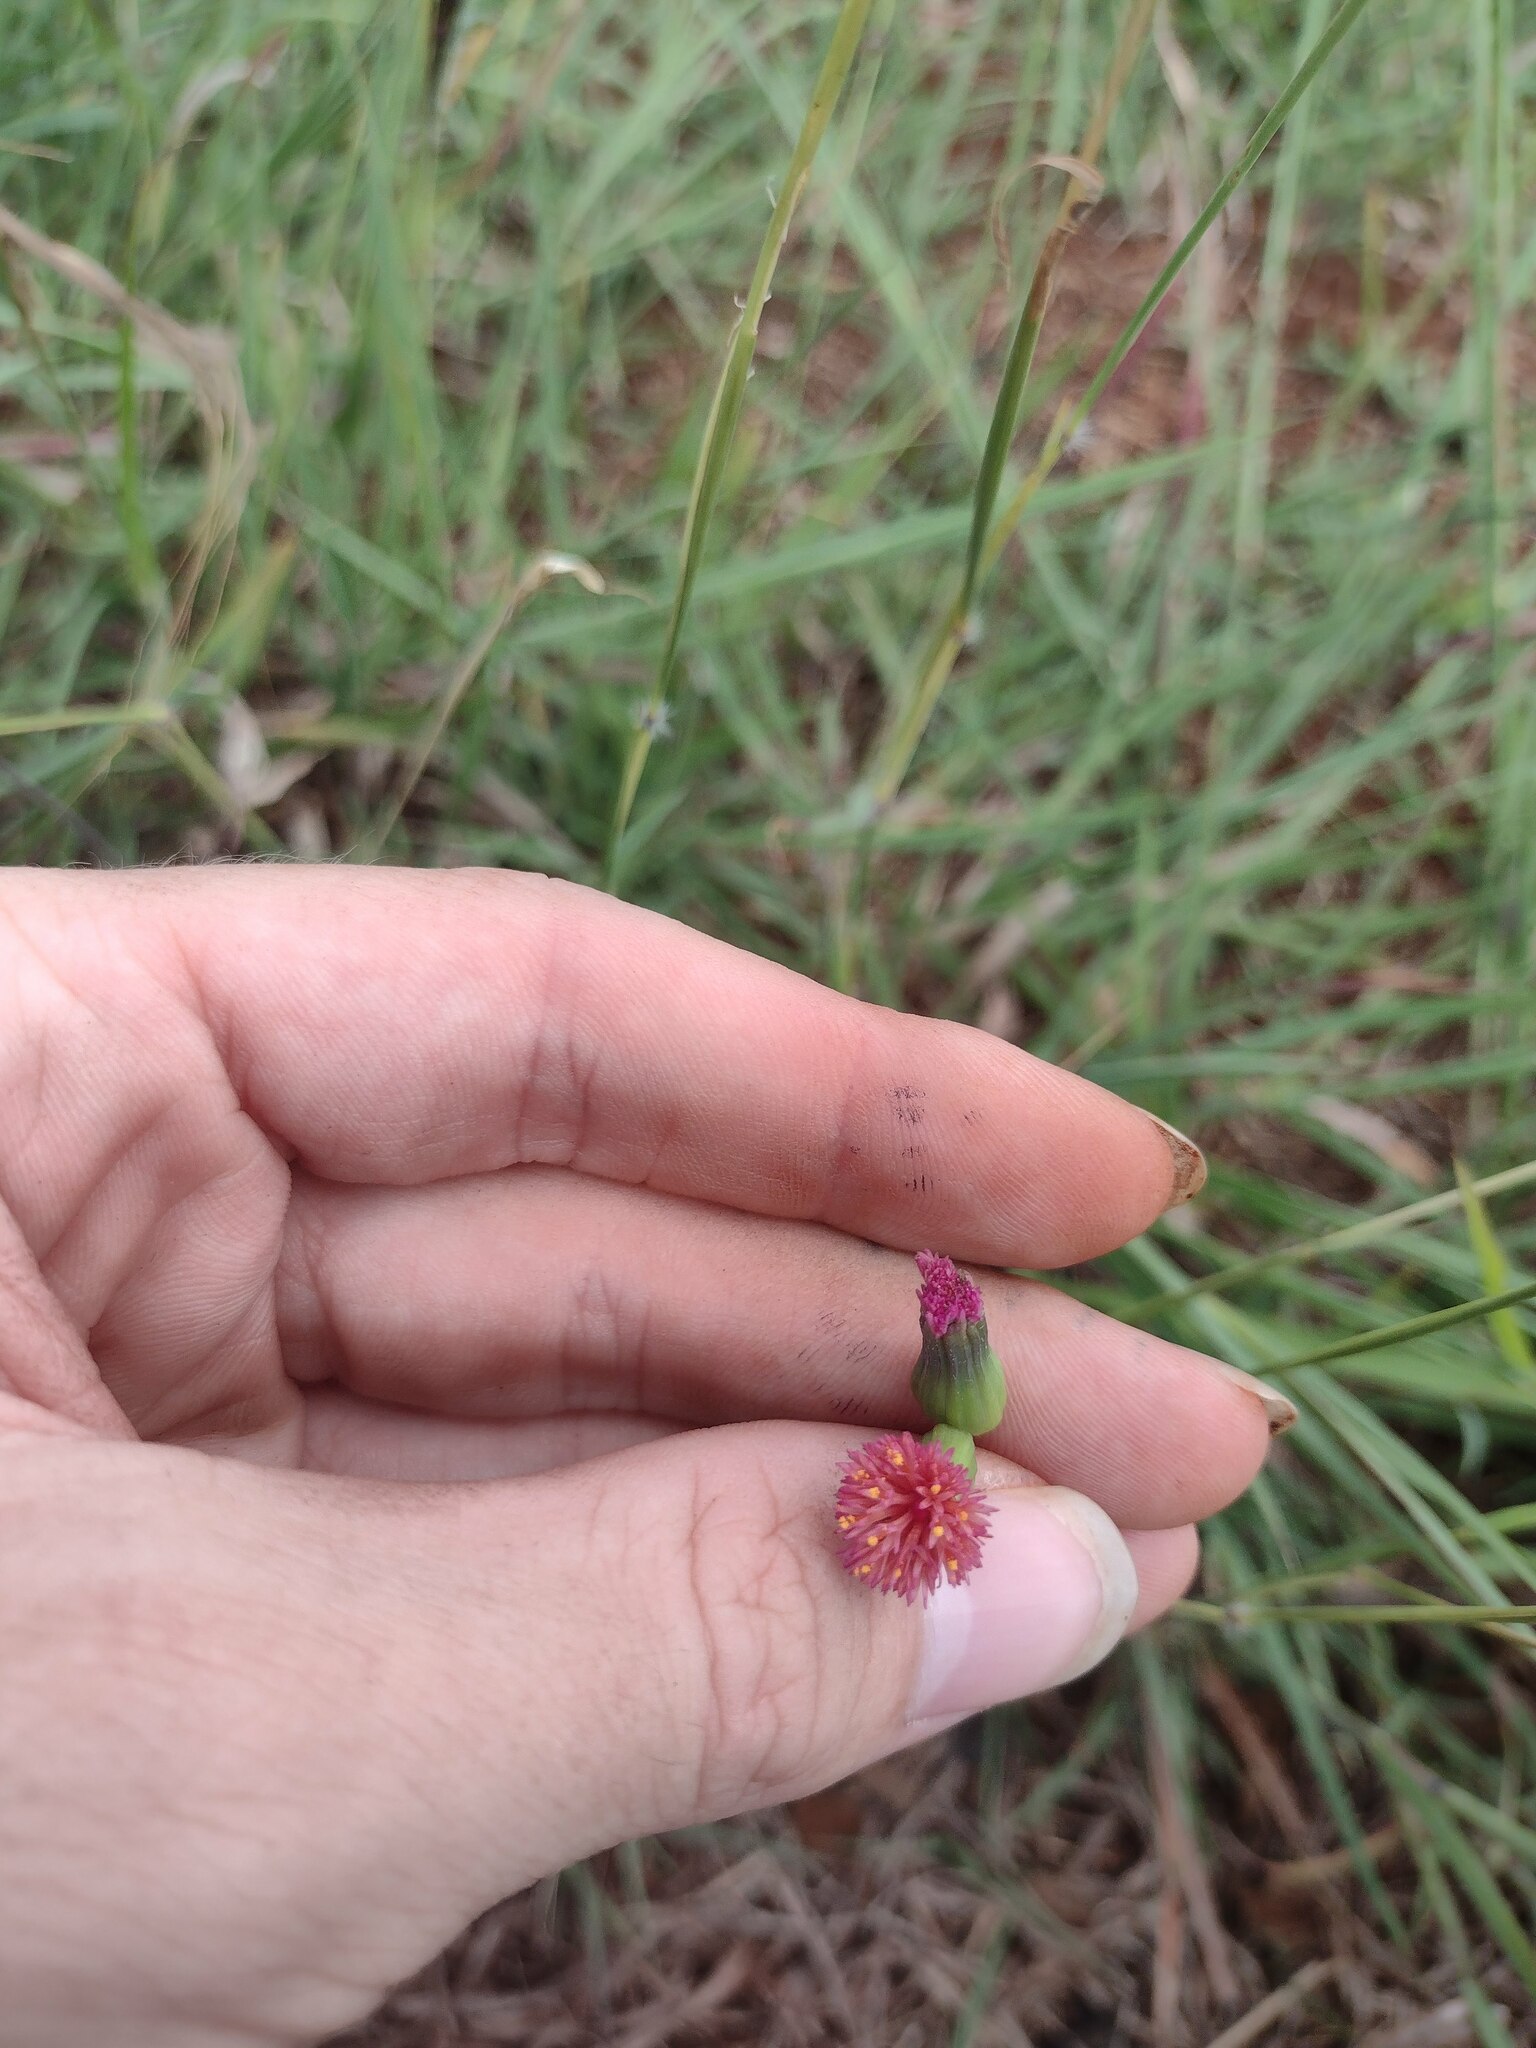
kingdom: Plantae
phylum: Tracheophyta
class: Magnoliopsida
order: Asterales
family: Asteraceae
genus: Emilia
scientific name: Emilia fosbergii
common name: Florida tasselflower
